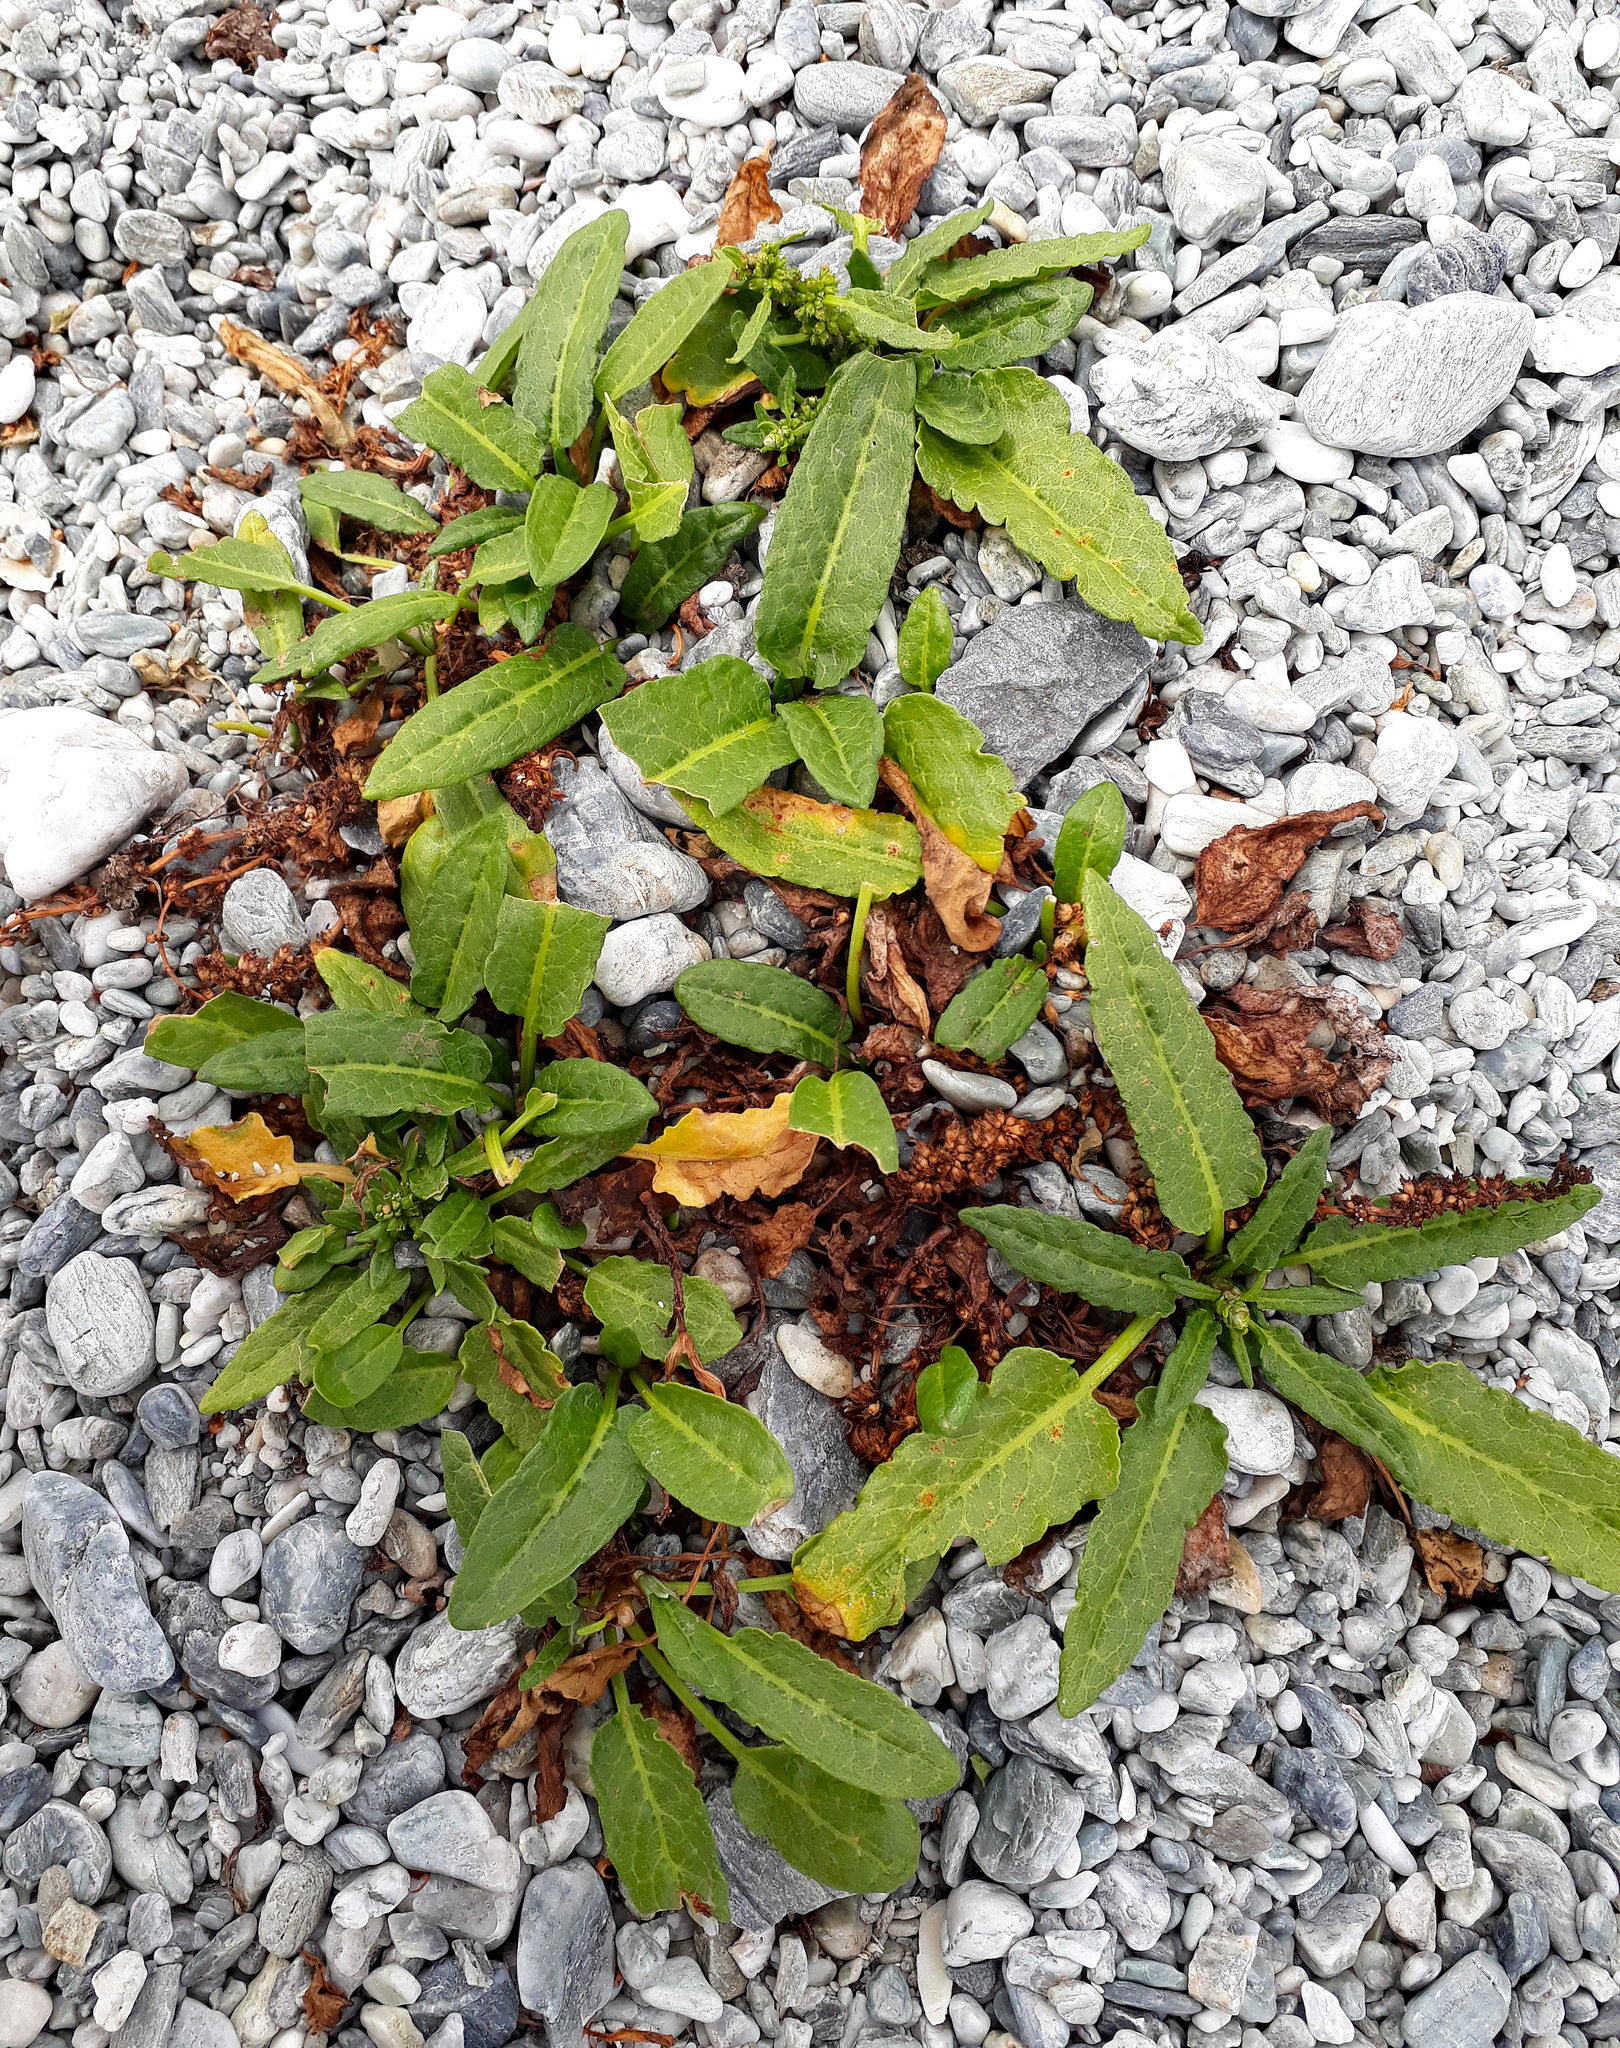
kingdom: Plantae
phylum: Tracheophyta
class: Magnoliopsida
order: Caryophyllales
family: Polygonaceae
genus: Rumex
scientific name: Rumex neglectus
